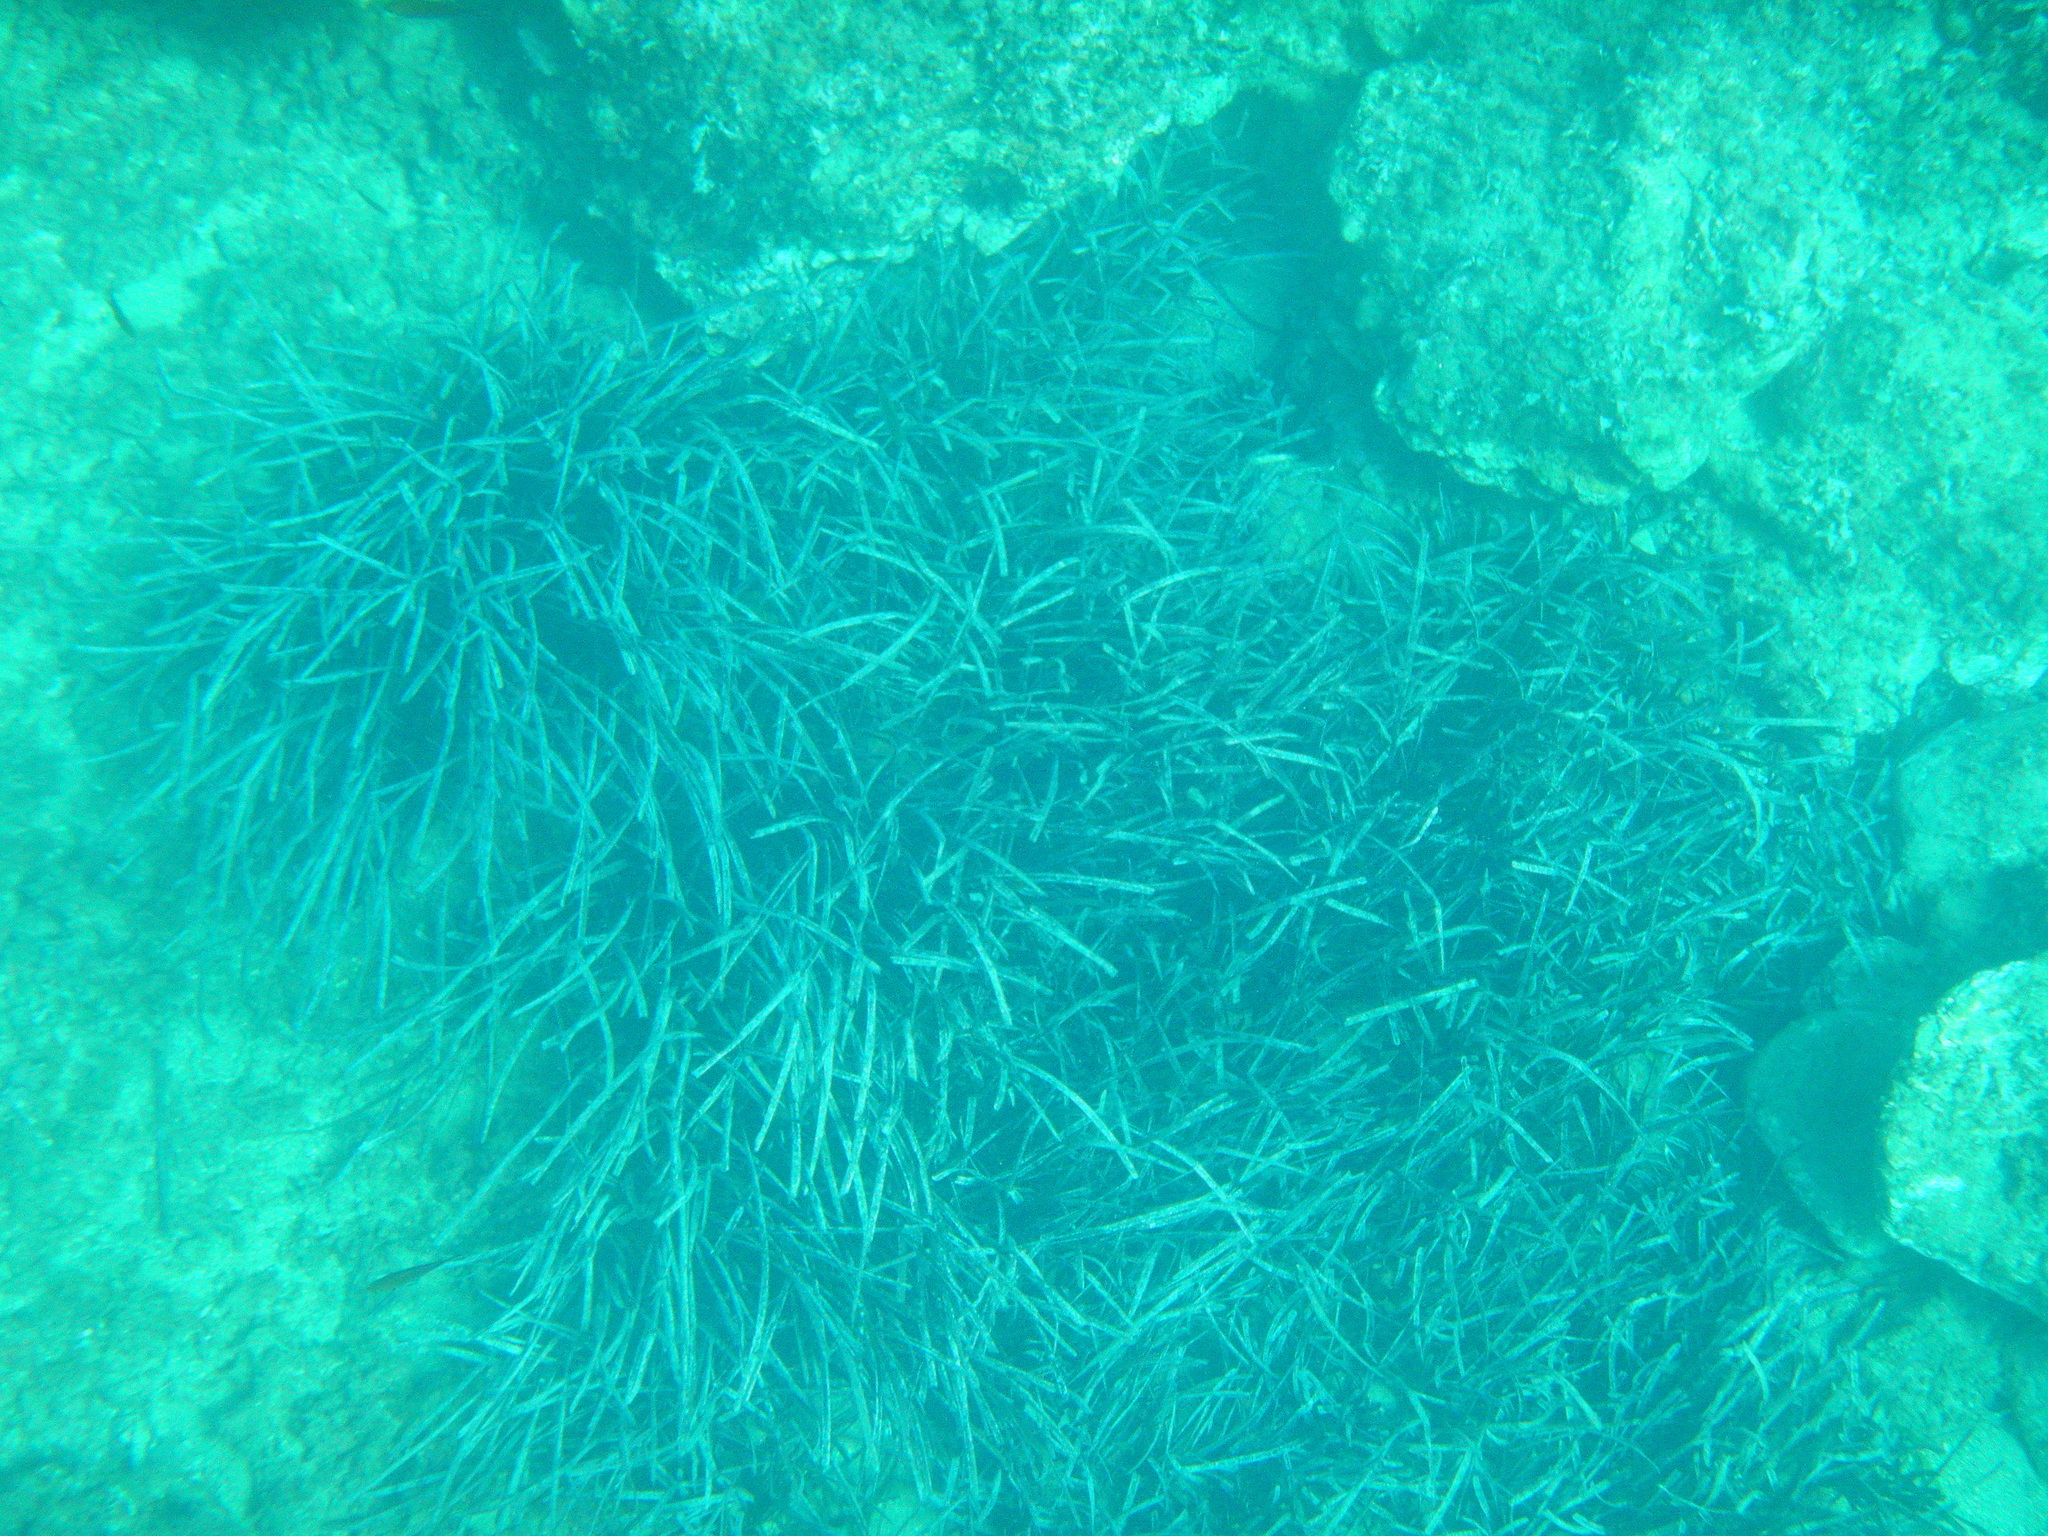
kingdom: Plantae
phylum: Tracheophyta
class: Liliopsida
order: Alismatales
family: Posidoniaceae
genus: Posidonia
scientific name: Posidonia oceanica
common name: Mediterranean tapeweed
